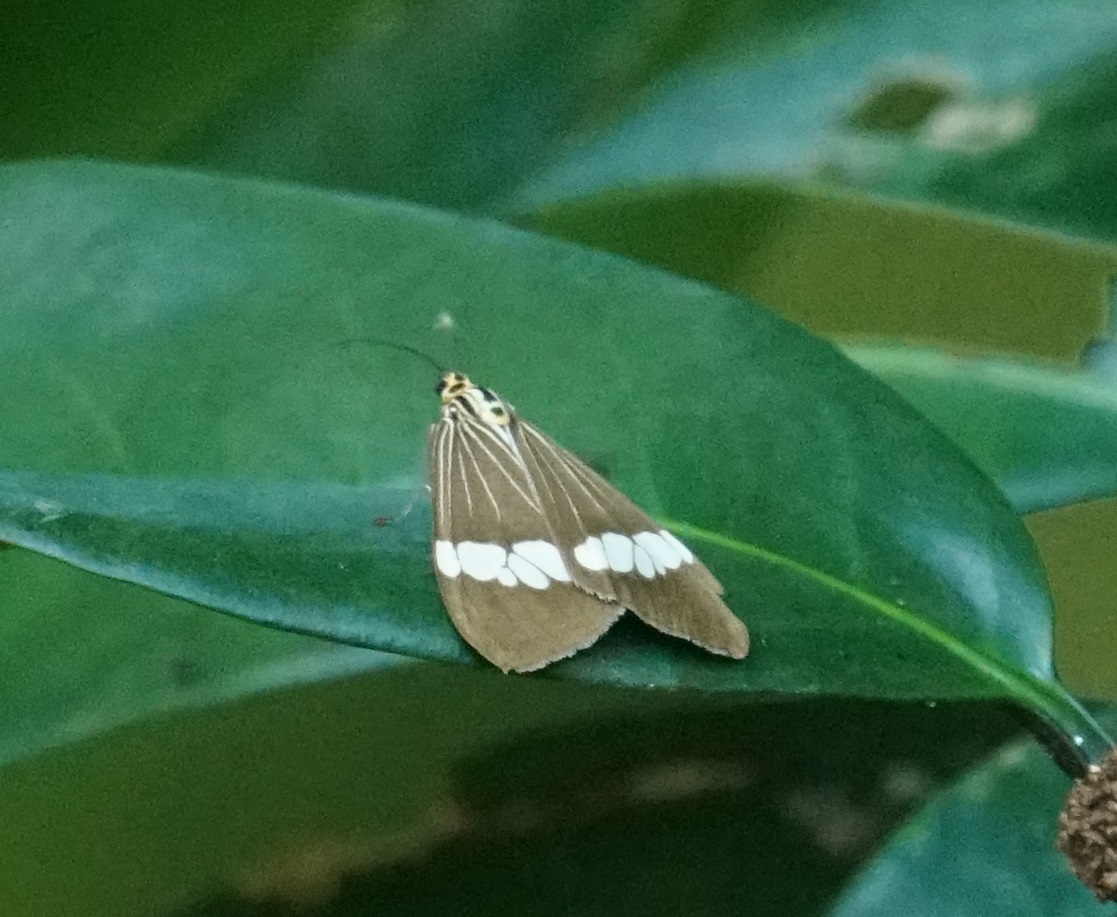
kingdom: Animalia
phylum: Arthropoda
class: Insecta
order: Lepidoptera
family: Erebidae
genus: Nyctemera
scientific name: Nyctemera baulus
